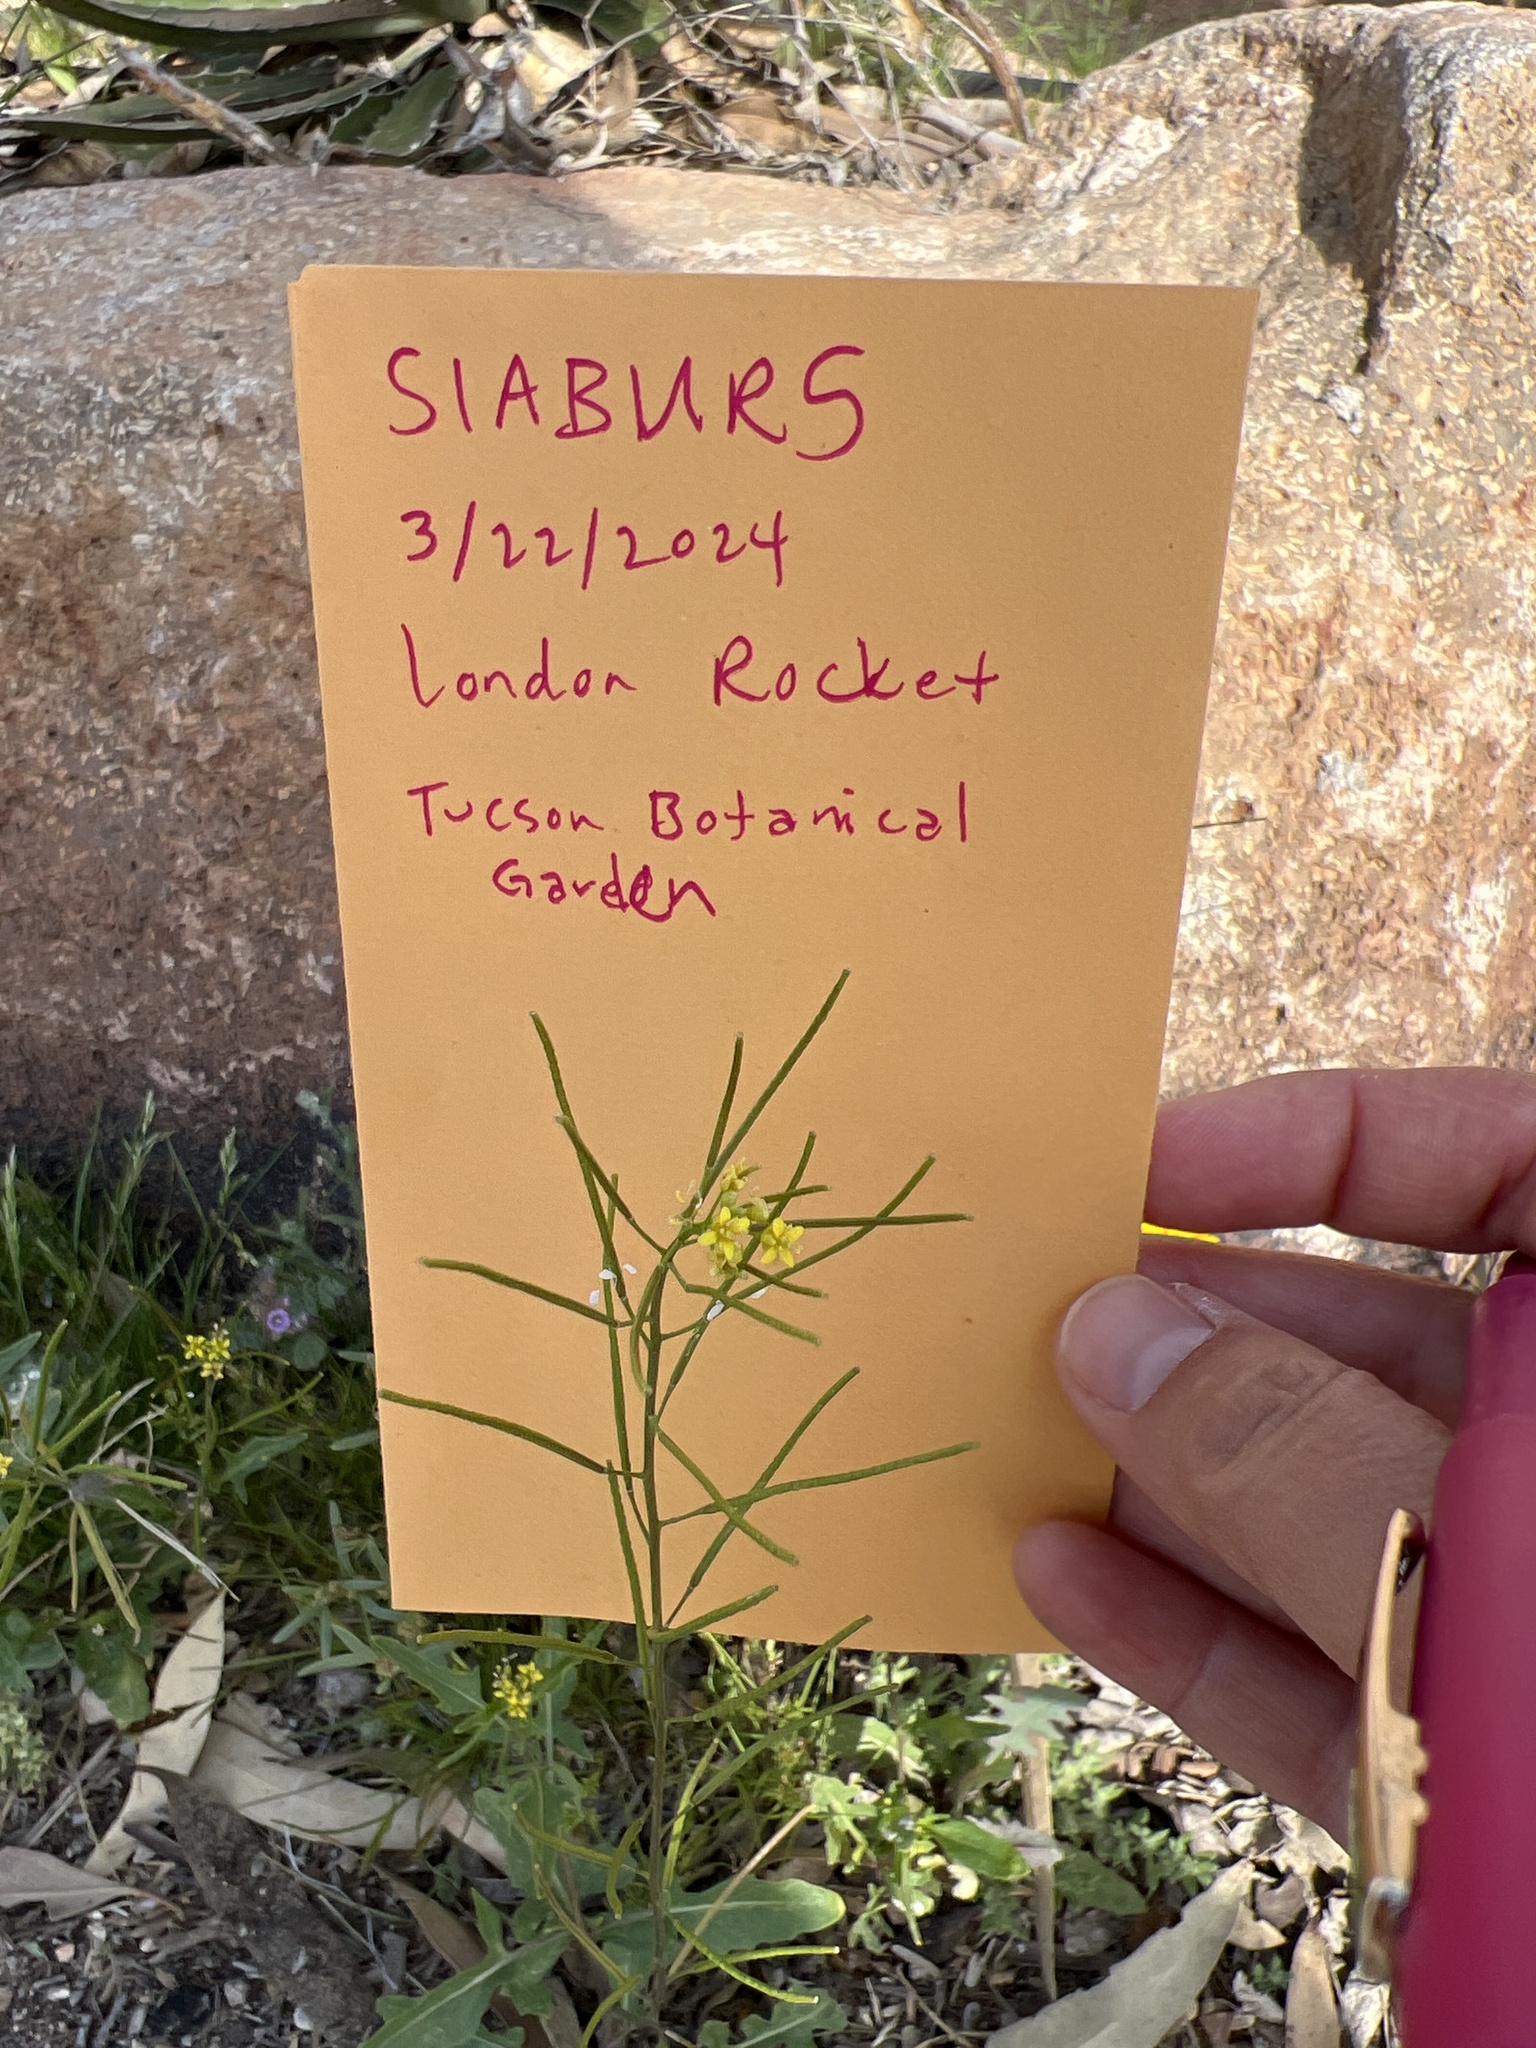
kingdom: Plantae
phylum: Tracheophyta
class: Magnoliopsida
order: Brassicales
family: Brassicaceae
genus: Sisymbrium
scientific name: Sisymbrium irio
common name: London rocket
